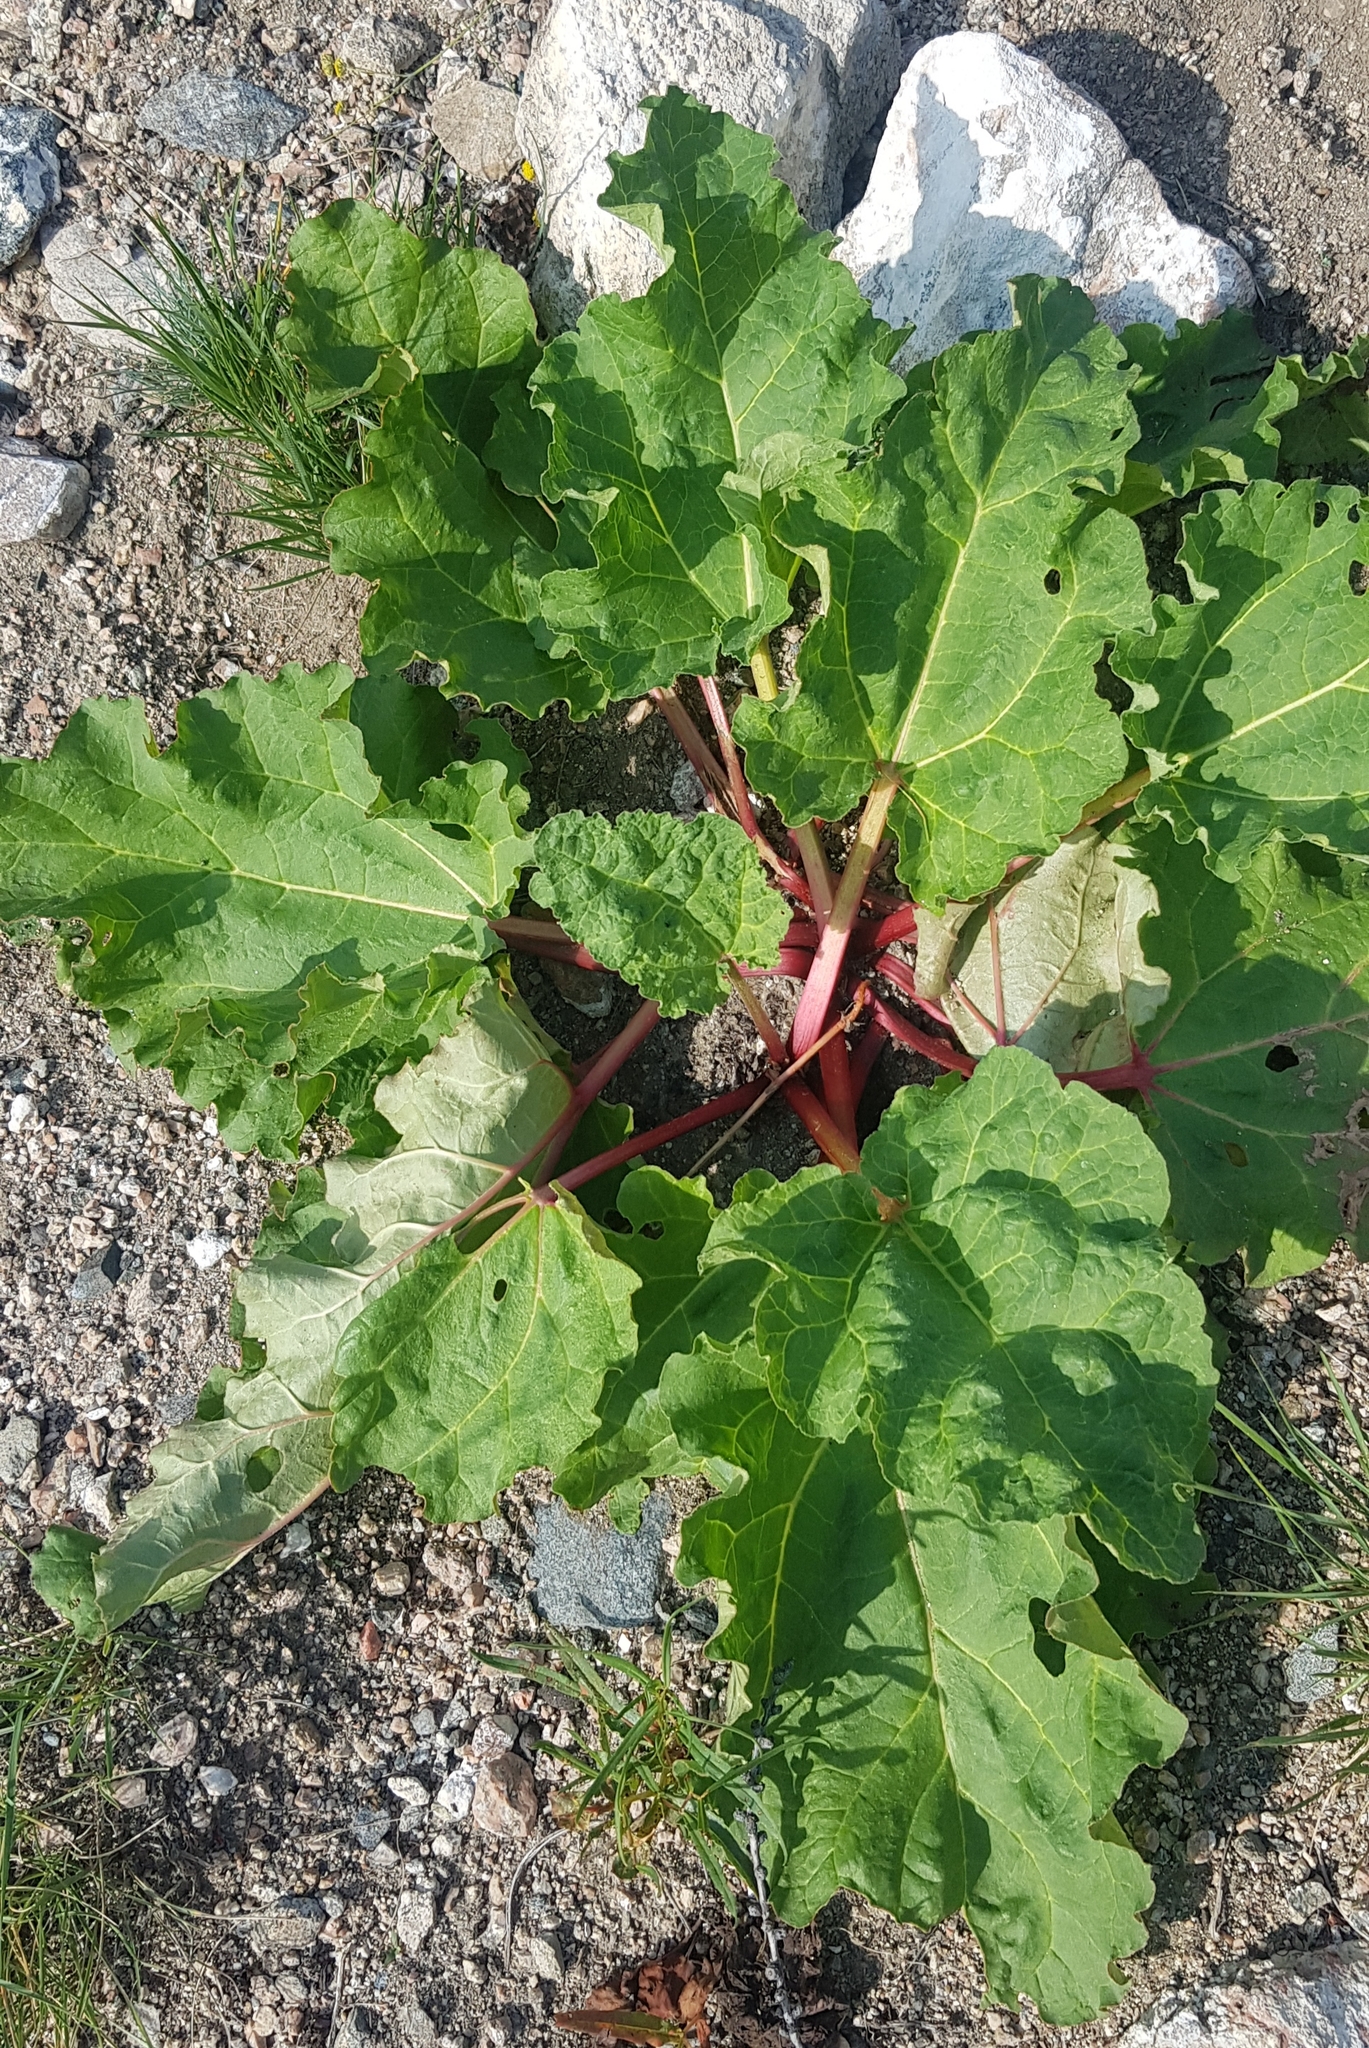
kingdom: Plantae
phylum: Tracheophyta
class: Magnoliopsida
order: Caryophyllales
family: Polygonaceae
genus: Rheum
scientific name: Rheum rhabarbarum
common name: Garden rhubarb
